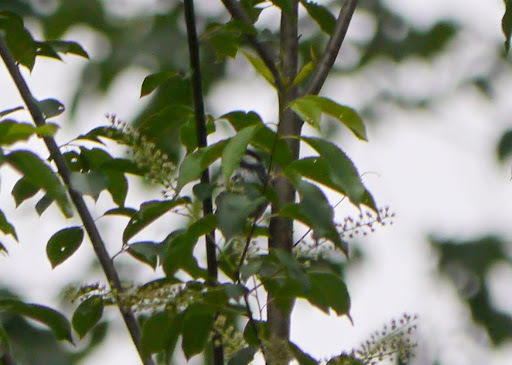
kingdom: Animalia
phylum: Chordata
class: Aves
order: Passeriformes
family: Parulidae
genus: Setophaga
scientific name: Setophaga striata
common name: Blackpoll warbler
